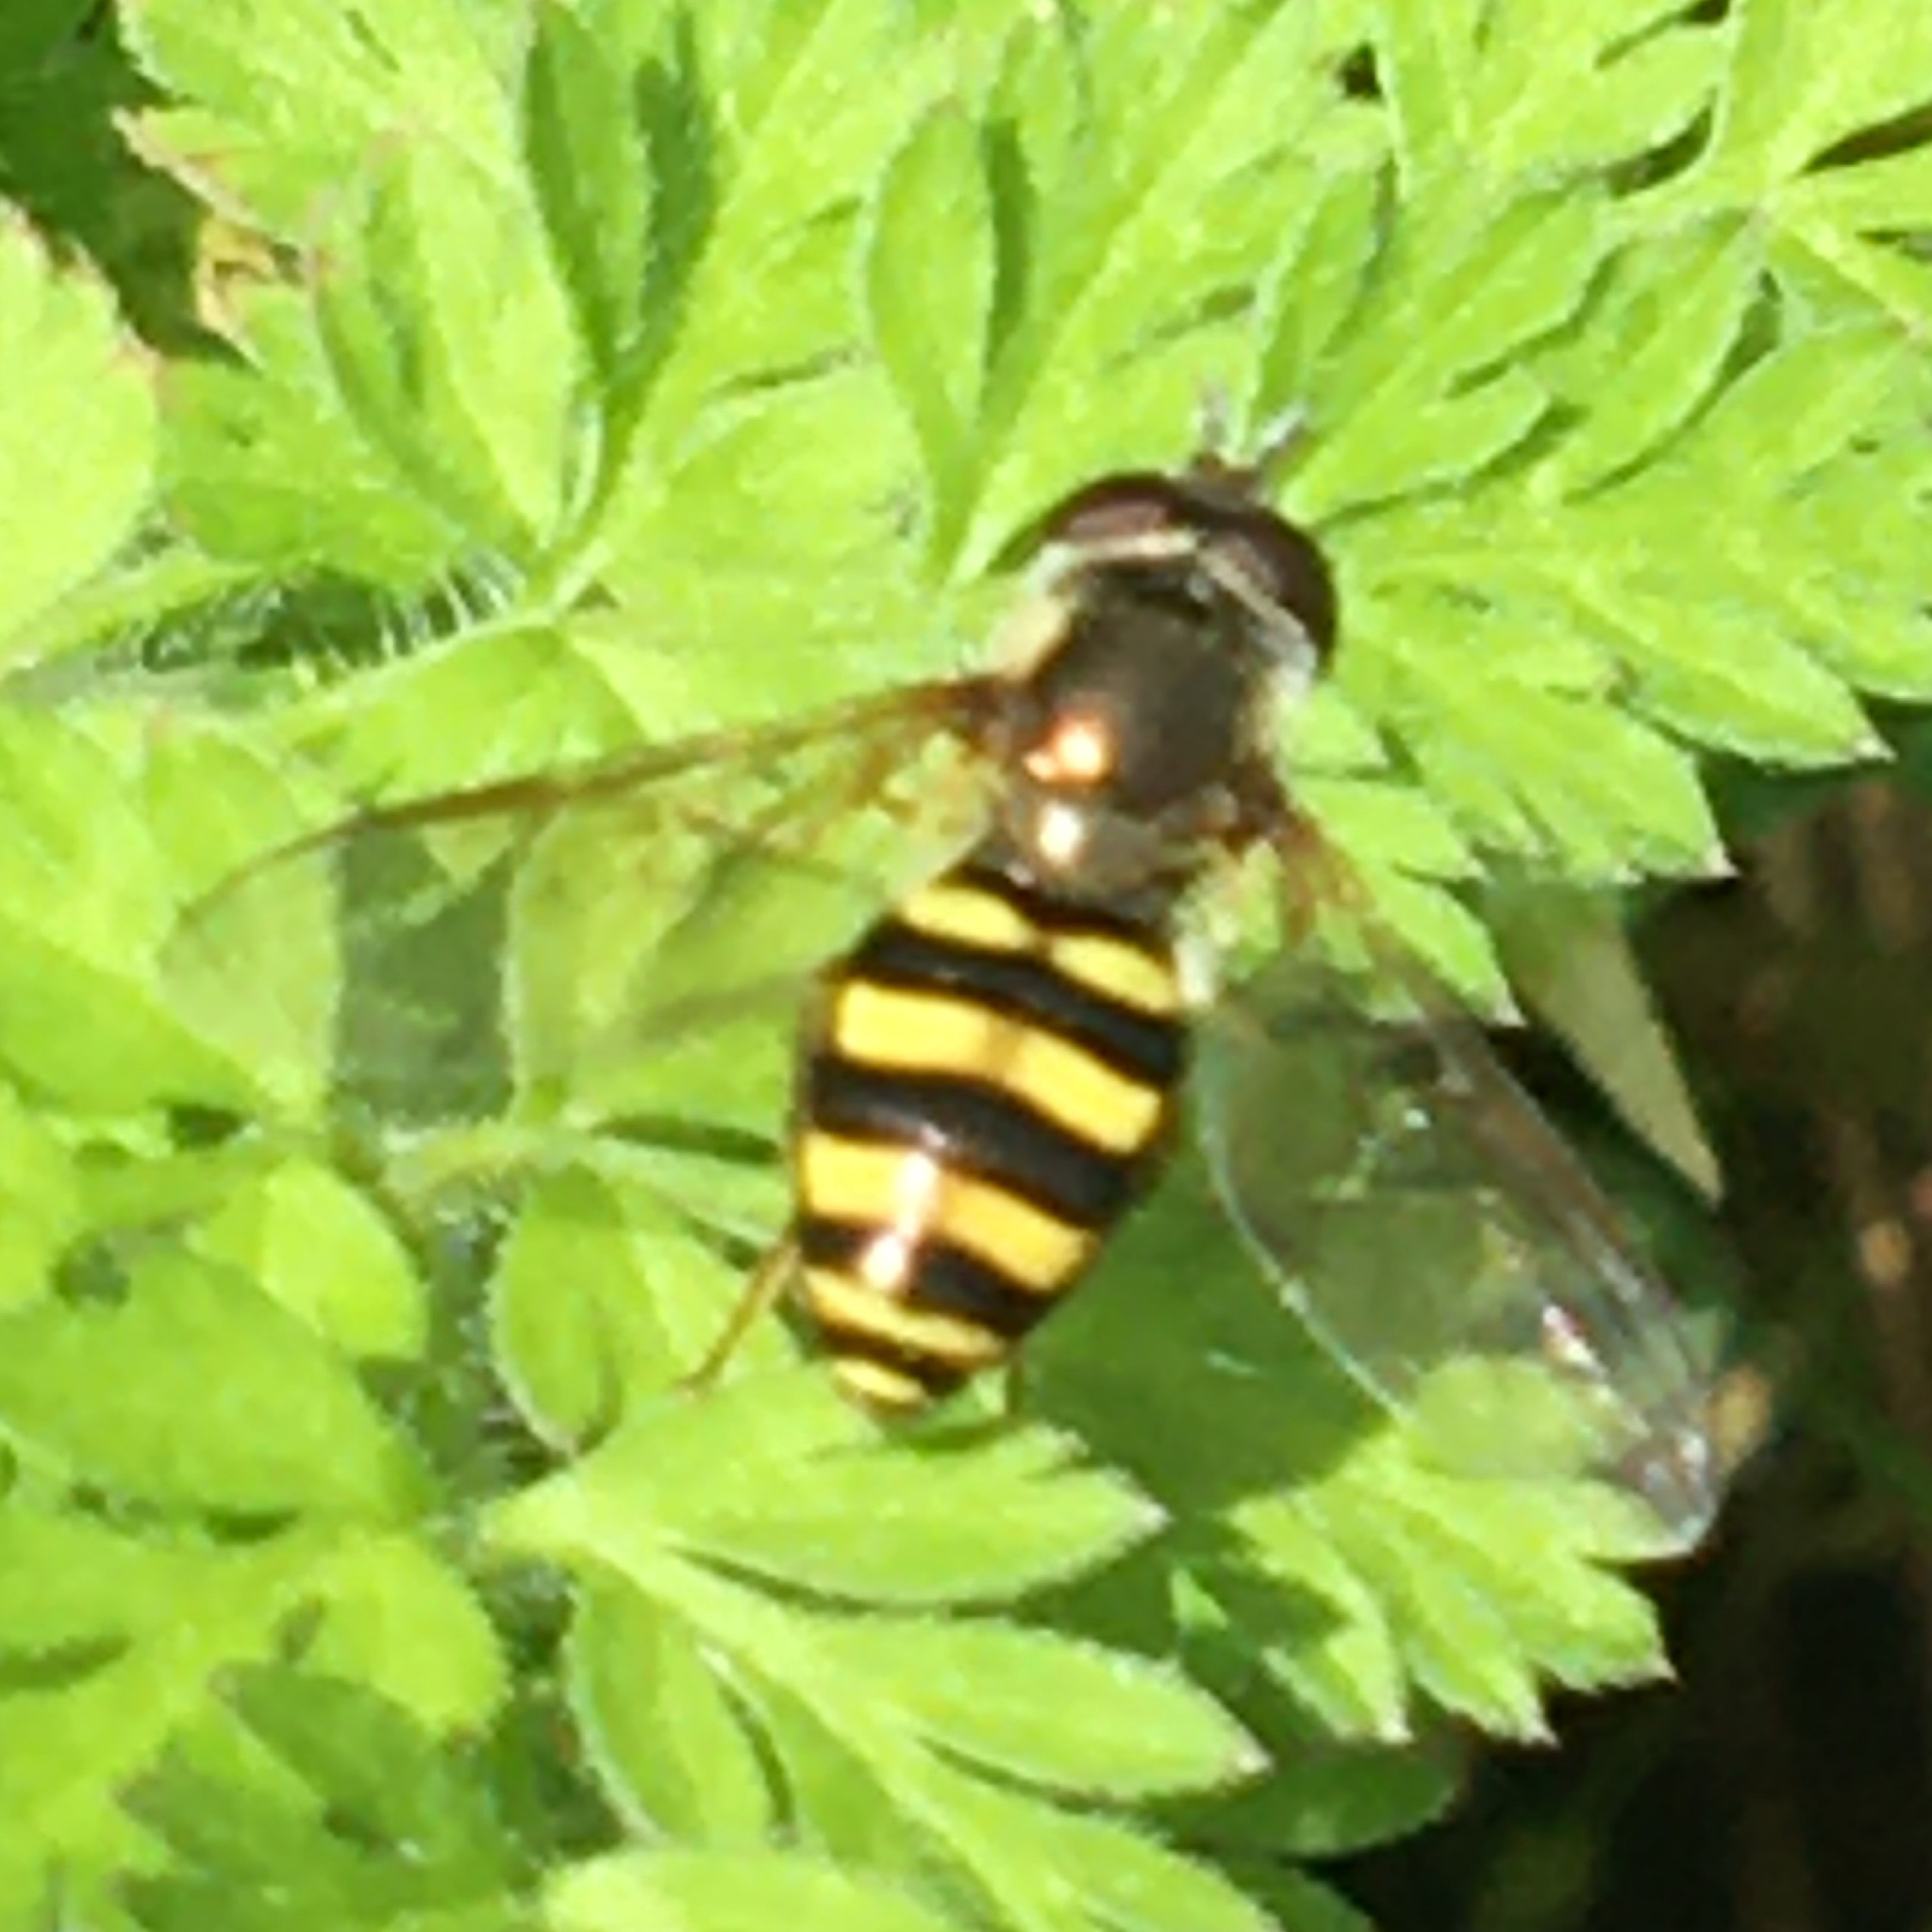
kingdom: Animalia
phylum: Arthropoda
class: Insecta
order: Diptera
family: Syrphidae
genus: Eupeodes
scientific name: Eupeodes
